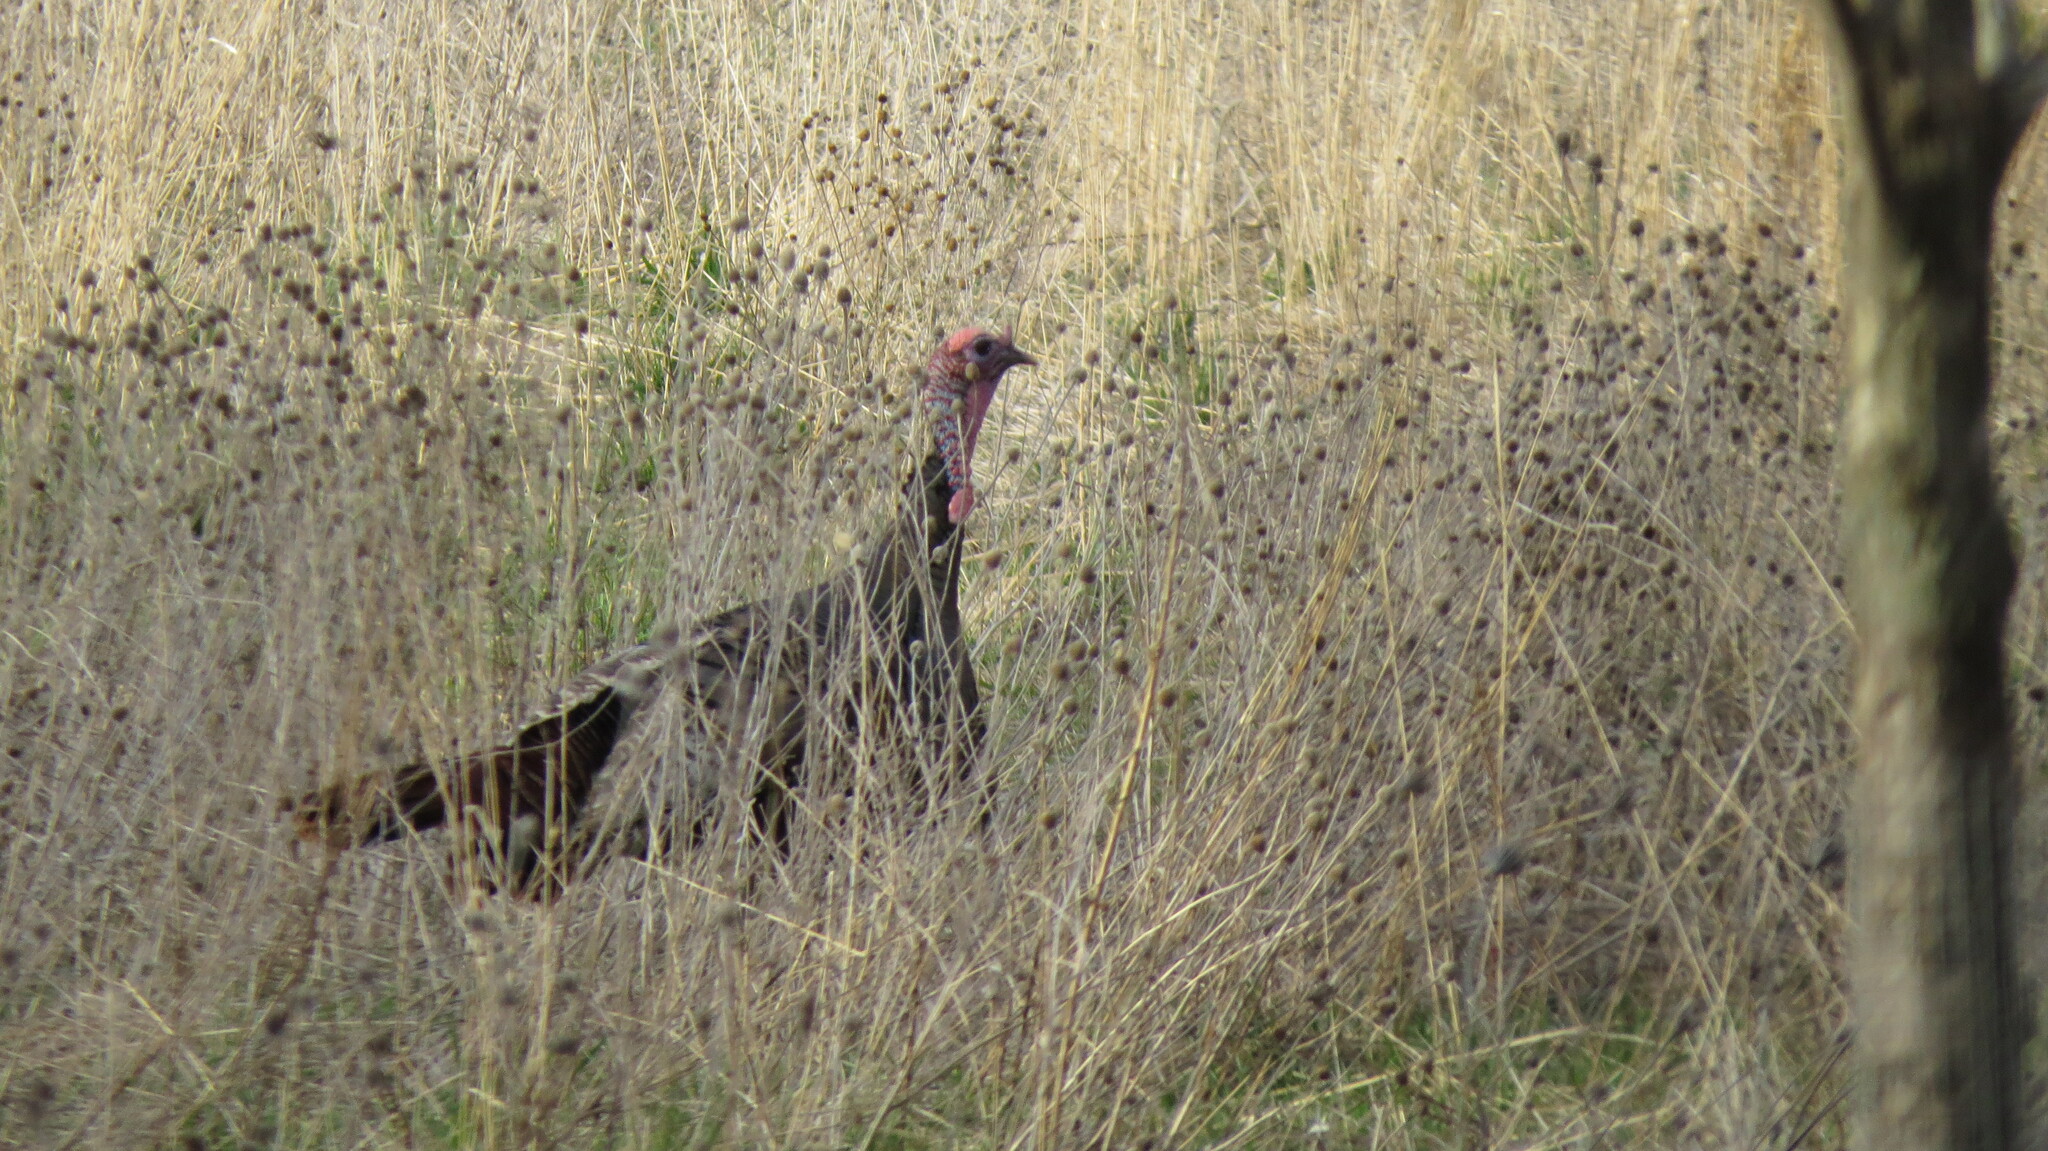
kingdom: Animalia
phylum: Chordata
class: Aves
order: Galliformes
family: Phasianidae
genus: Meleagris
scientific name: Meleagris gallopavo
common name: Wild turkey
